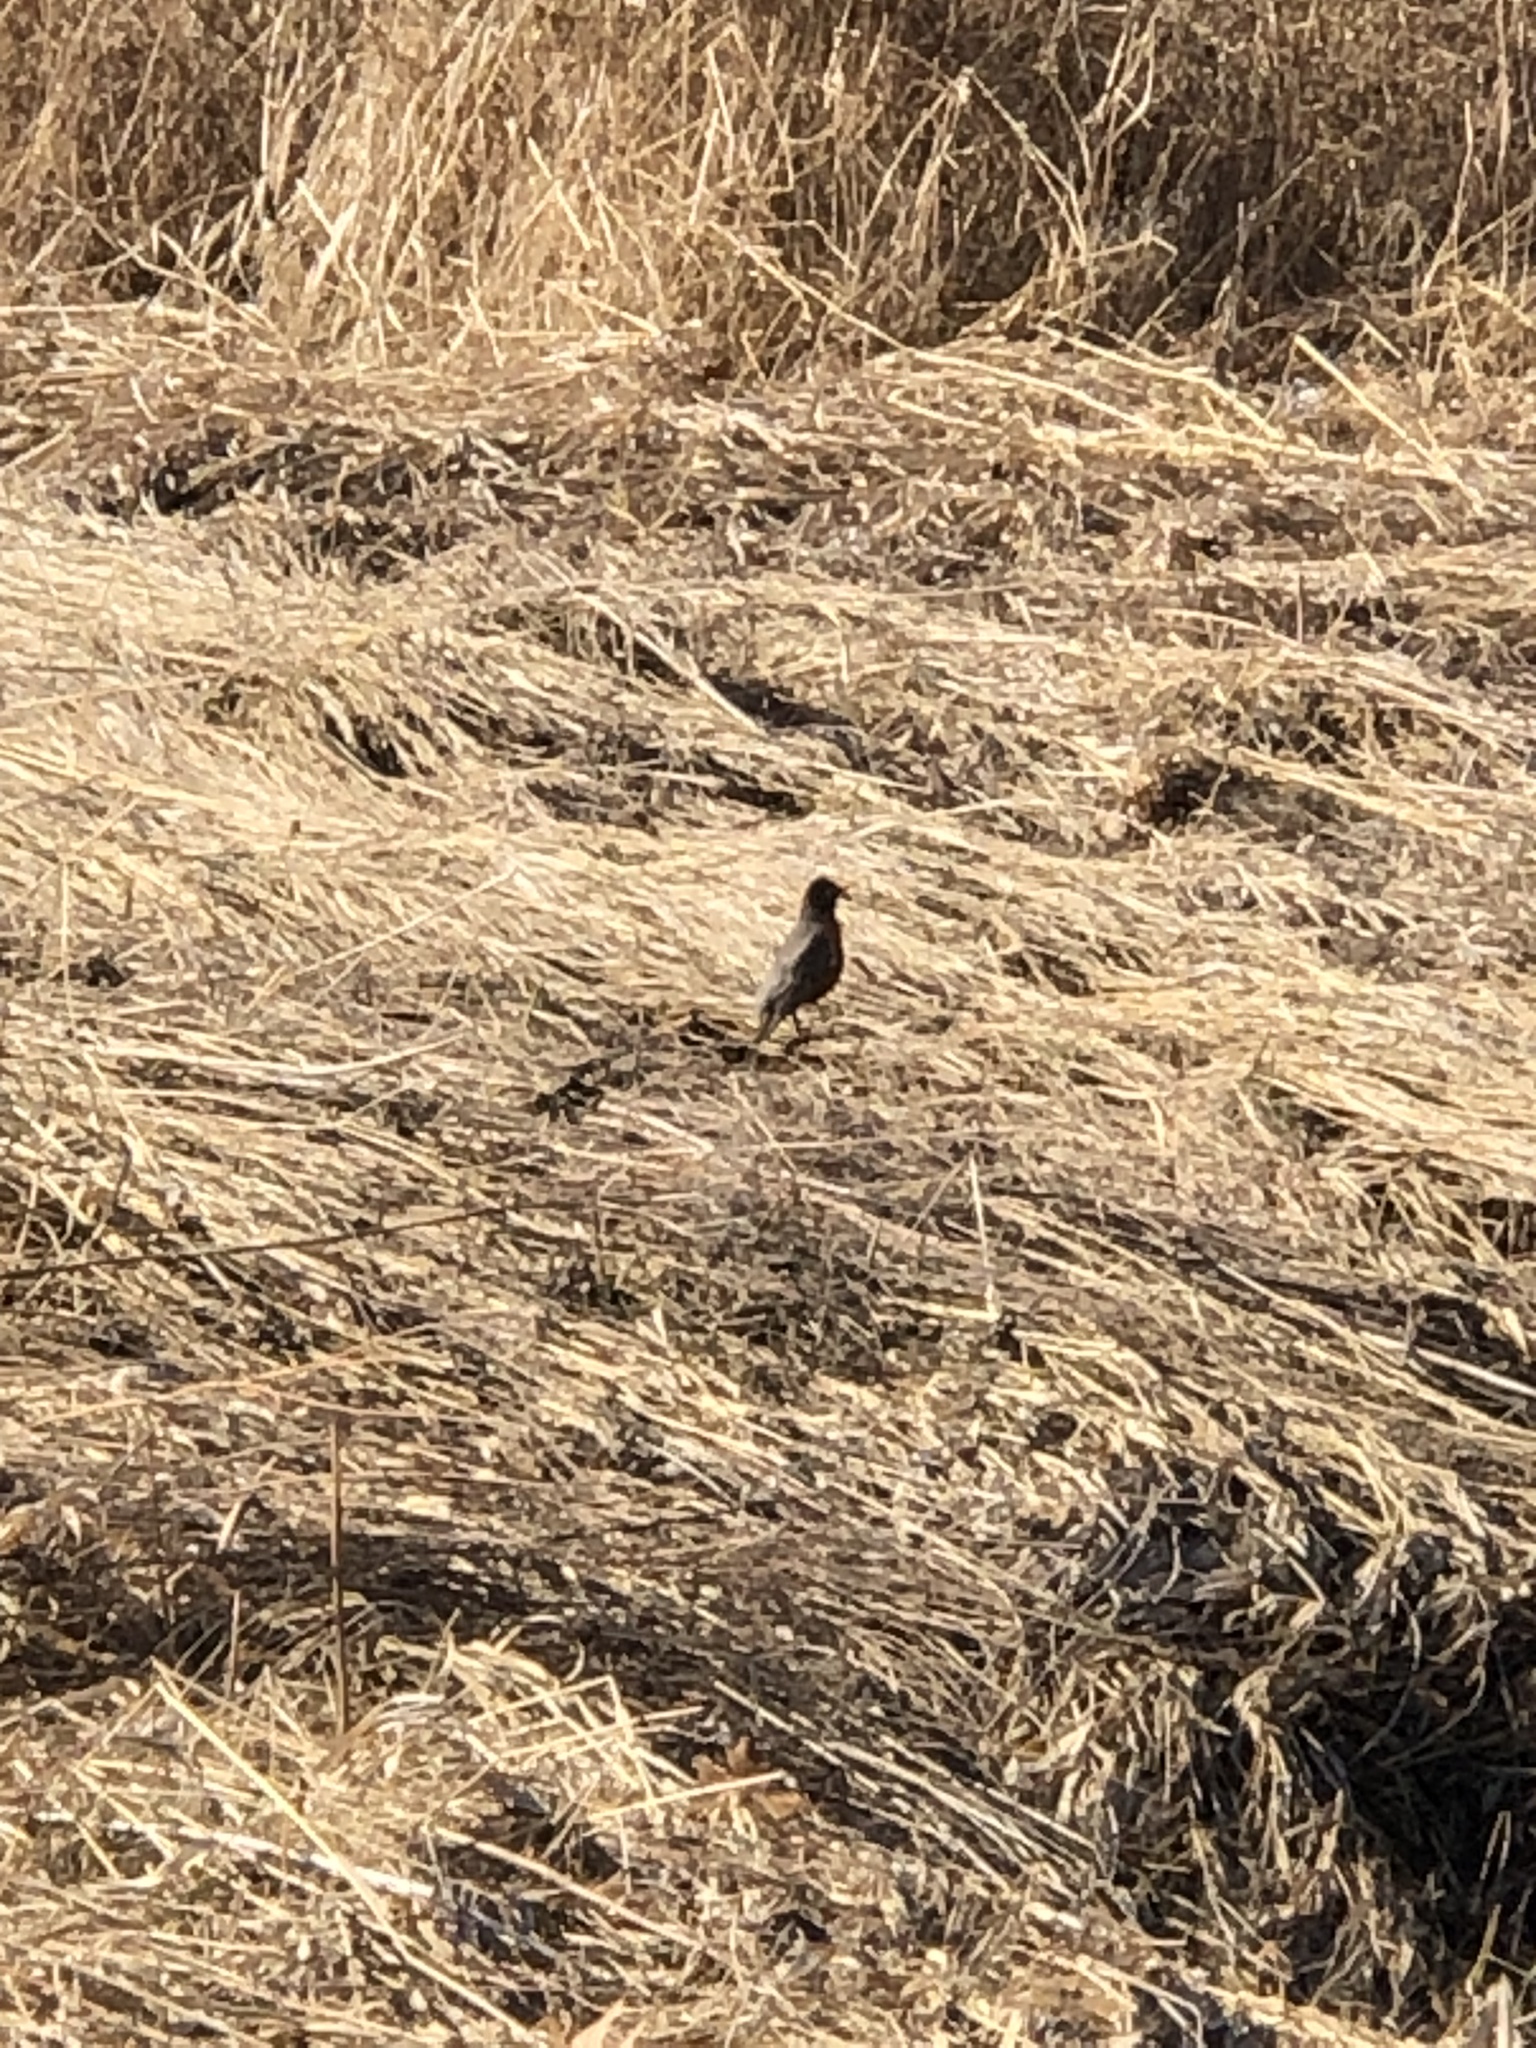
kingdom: Animalia
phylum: Chordata
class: Aves
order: Passeriformes
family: Turdidae
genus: Turdus
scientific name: Turdus migratorius
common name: American robin
